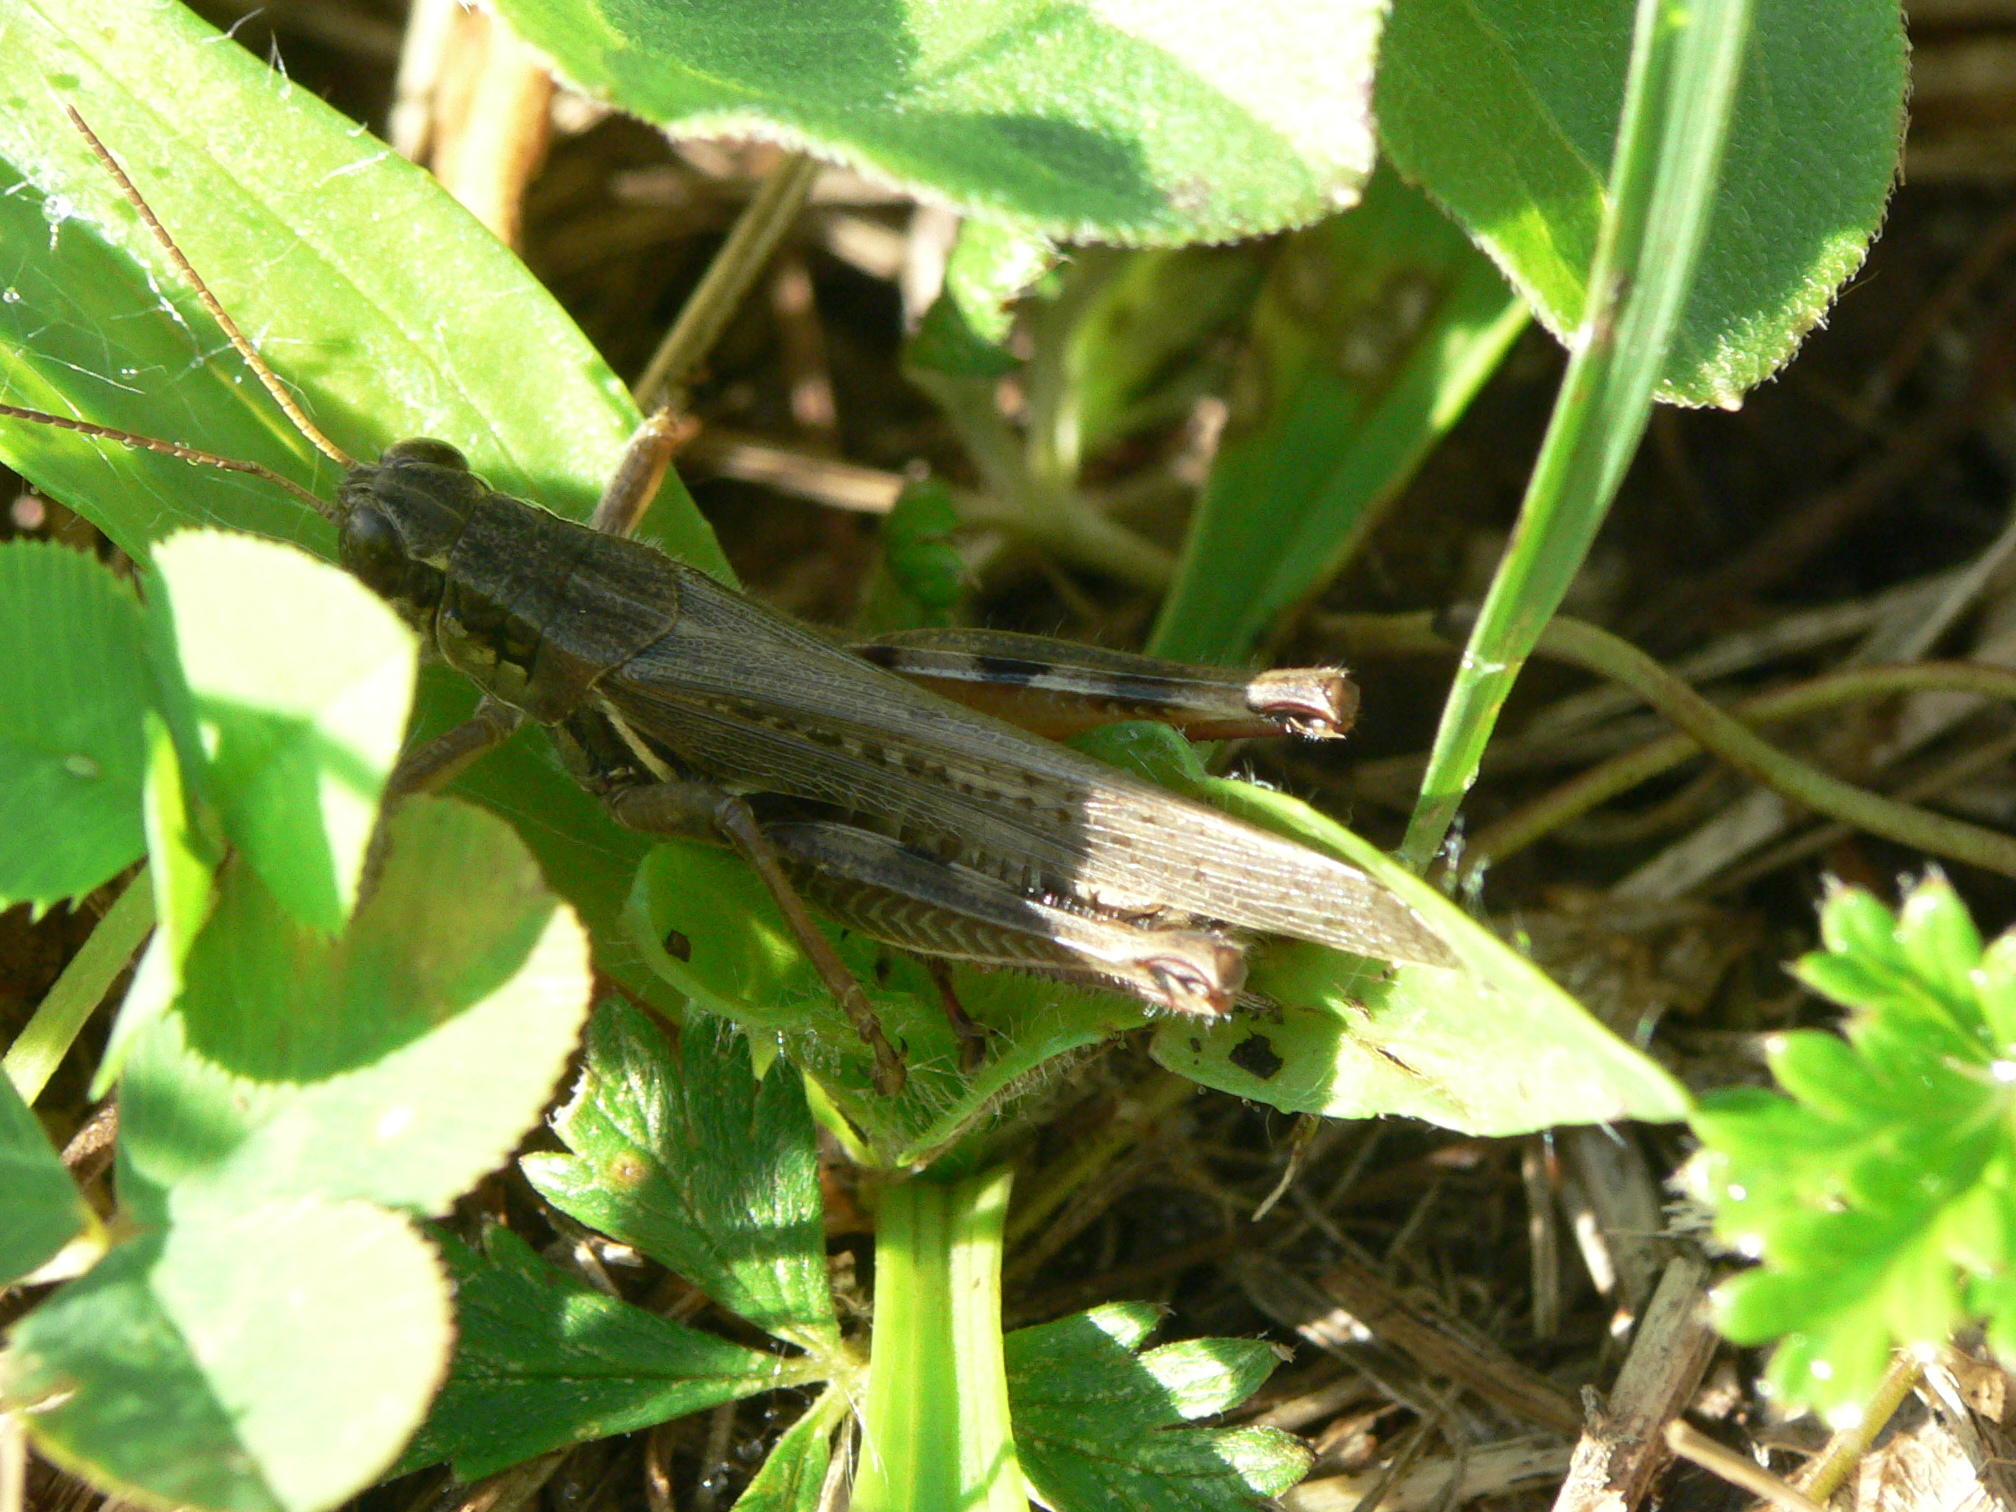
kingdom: Animalia
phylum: Arthropoda
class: Insecta
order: Orthoptera
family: Acrididae
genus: Melanoplus
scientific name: Melanoplus femurrubrum
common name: Red-legged grasshopper
